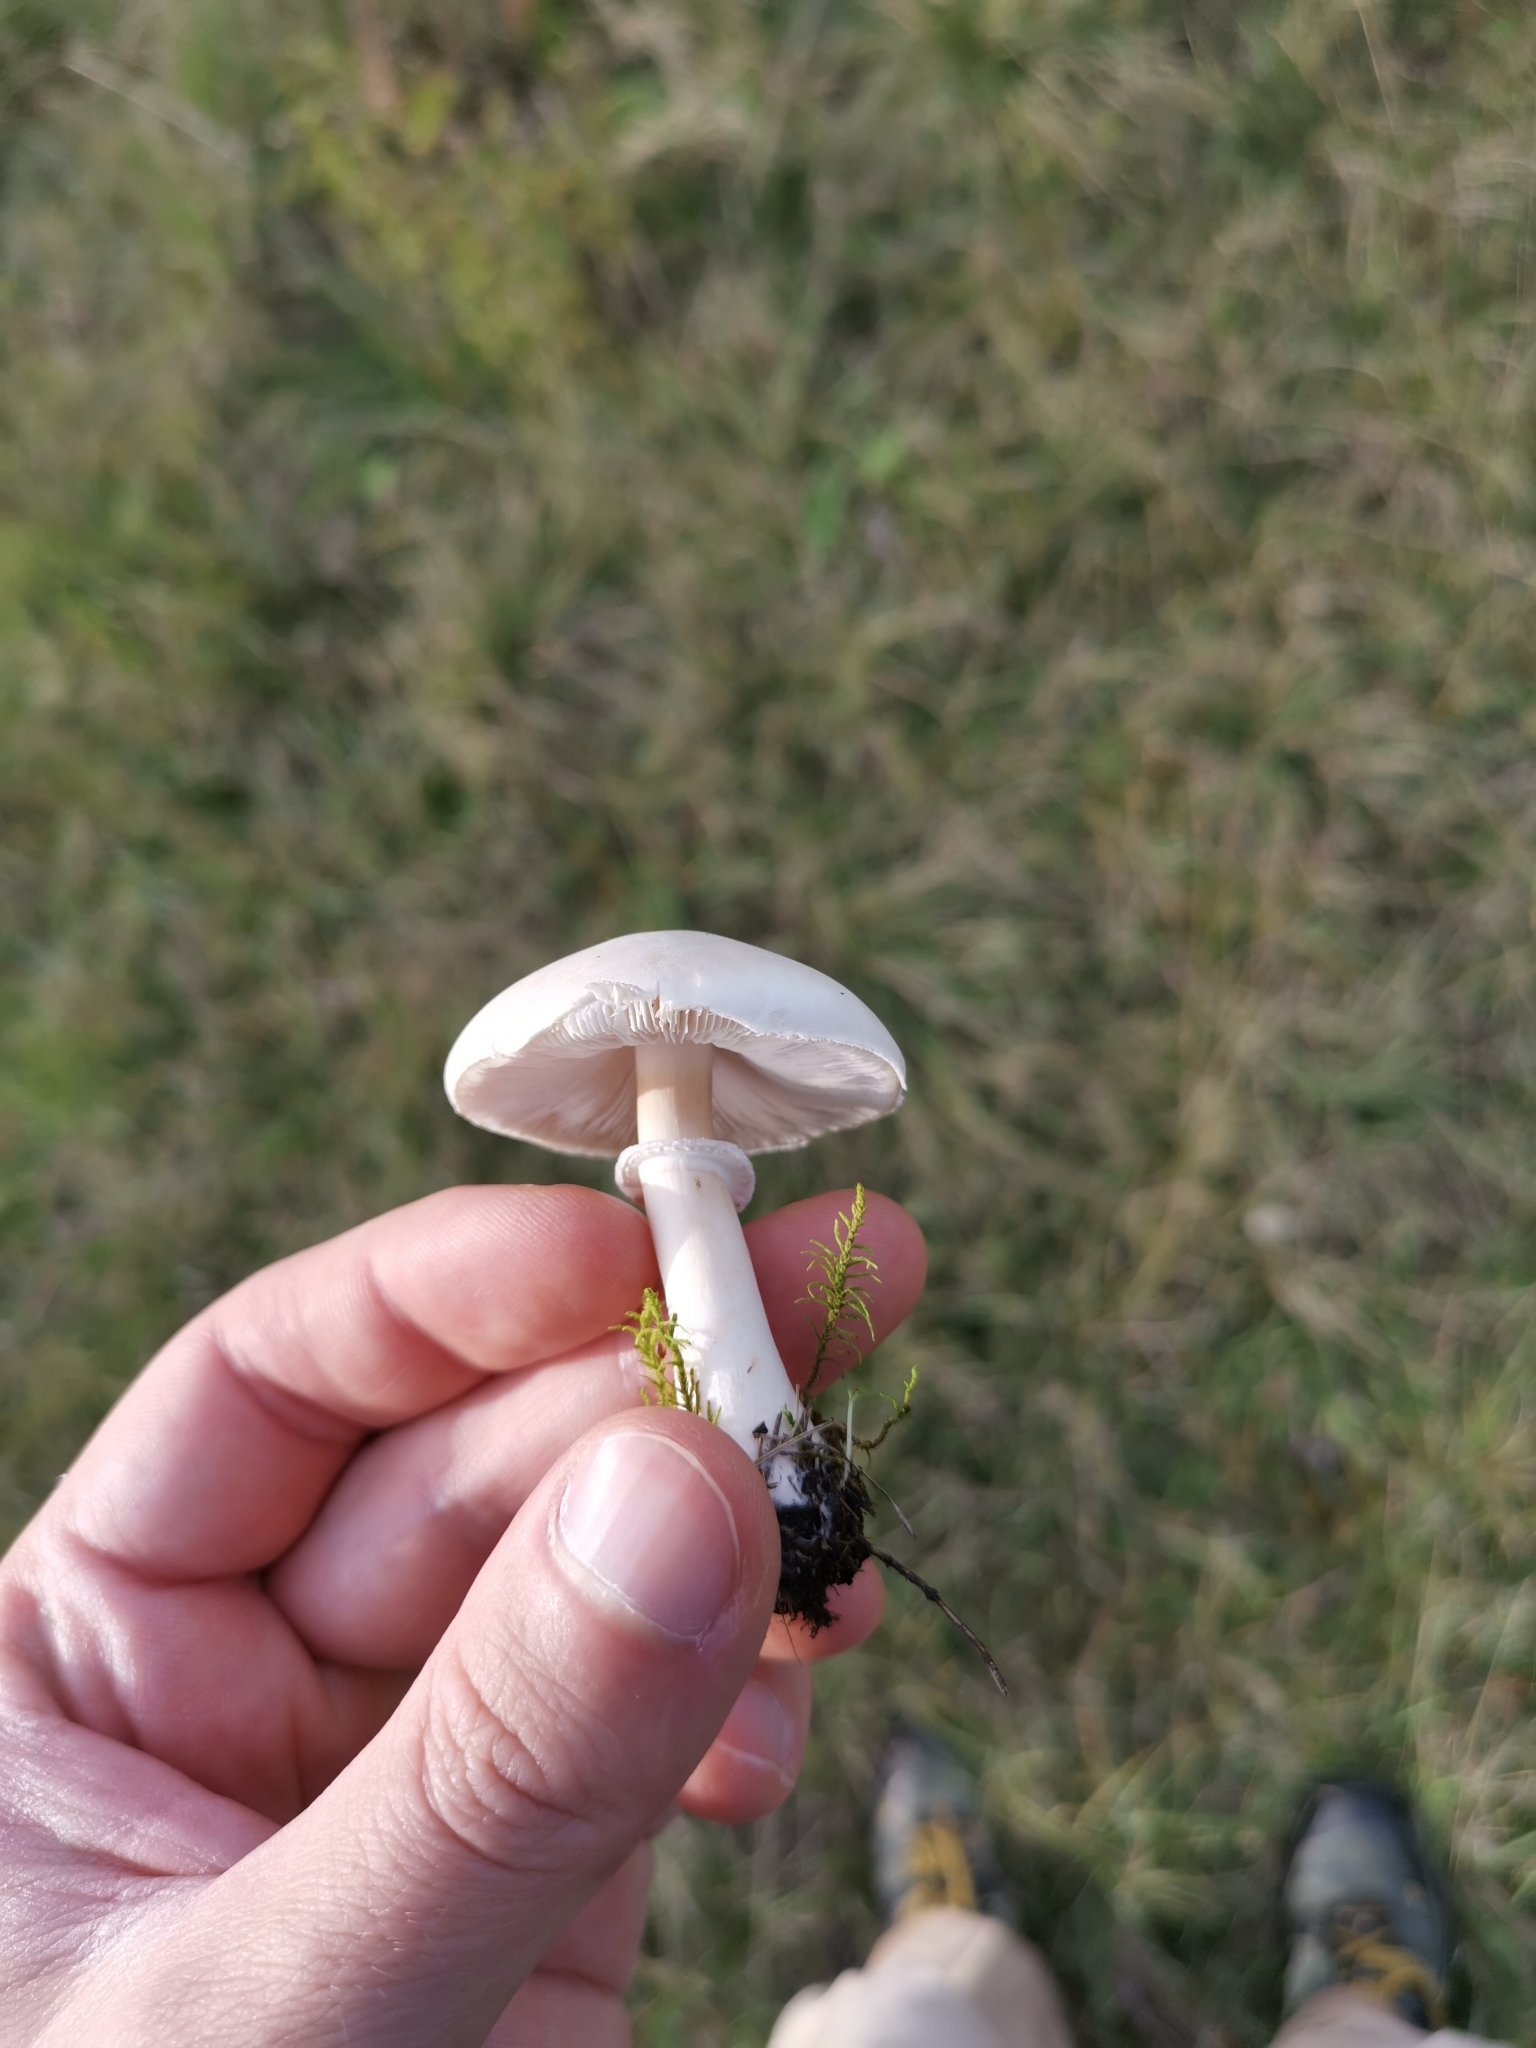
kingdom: Fungi
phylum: Basidiomycota
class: Agaricomycetes
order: Agaricales
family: Agaricaceae
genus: Leucoagaricus
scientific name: Leucoagaricus leucothites
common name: White dapperling
